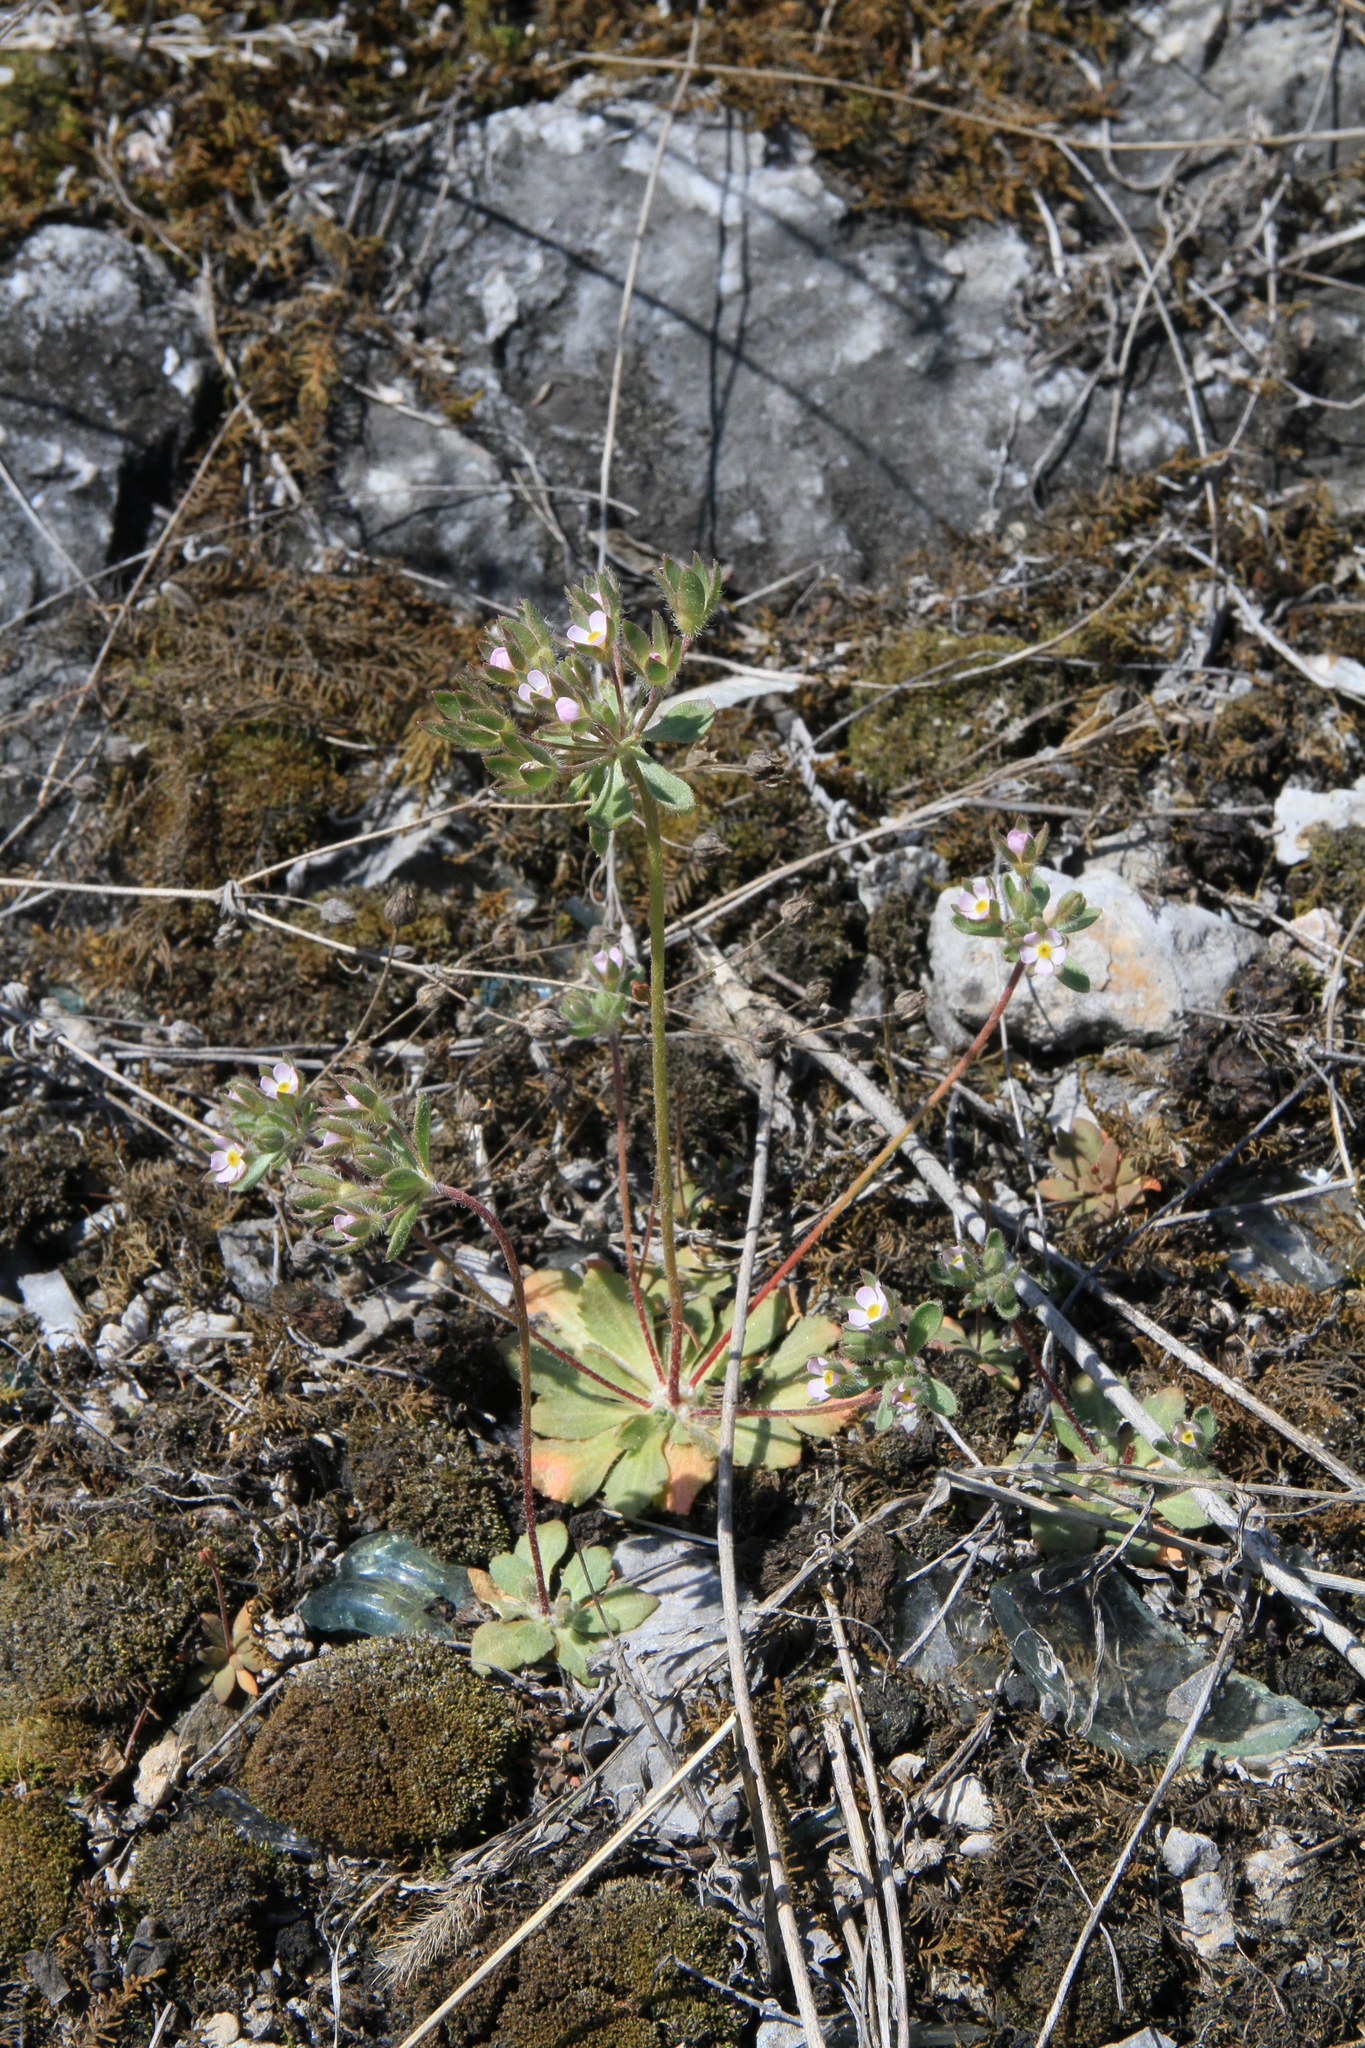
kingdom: Plantae
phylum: Tracheophyta
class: Magnoliopsida
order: Ericales
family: Primulaceae
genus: Androsace
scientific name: Androsace maxima
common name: Annual androsace
